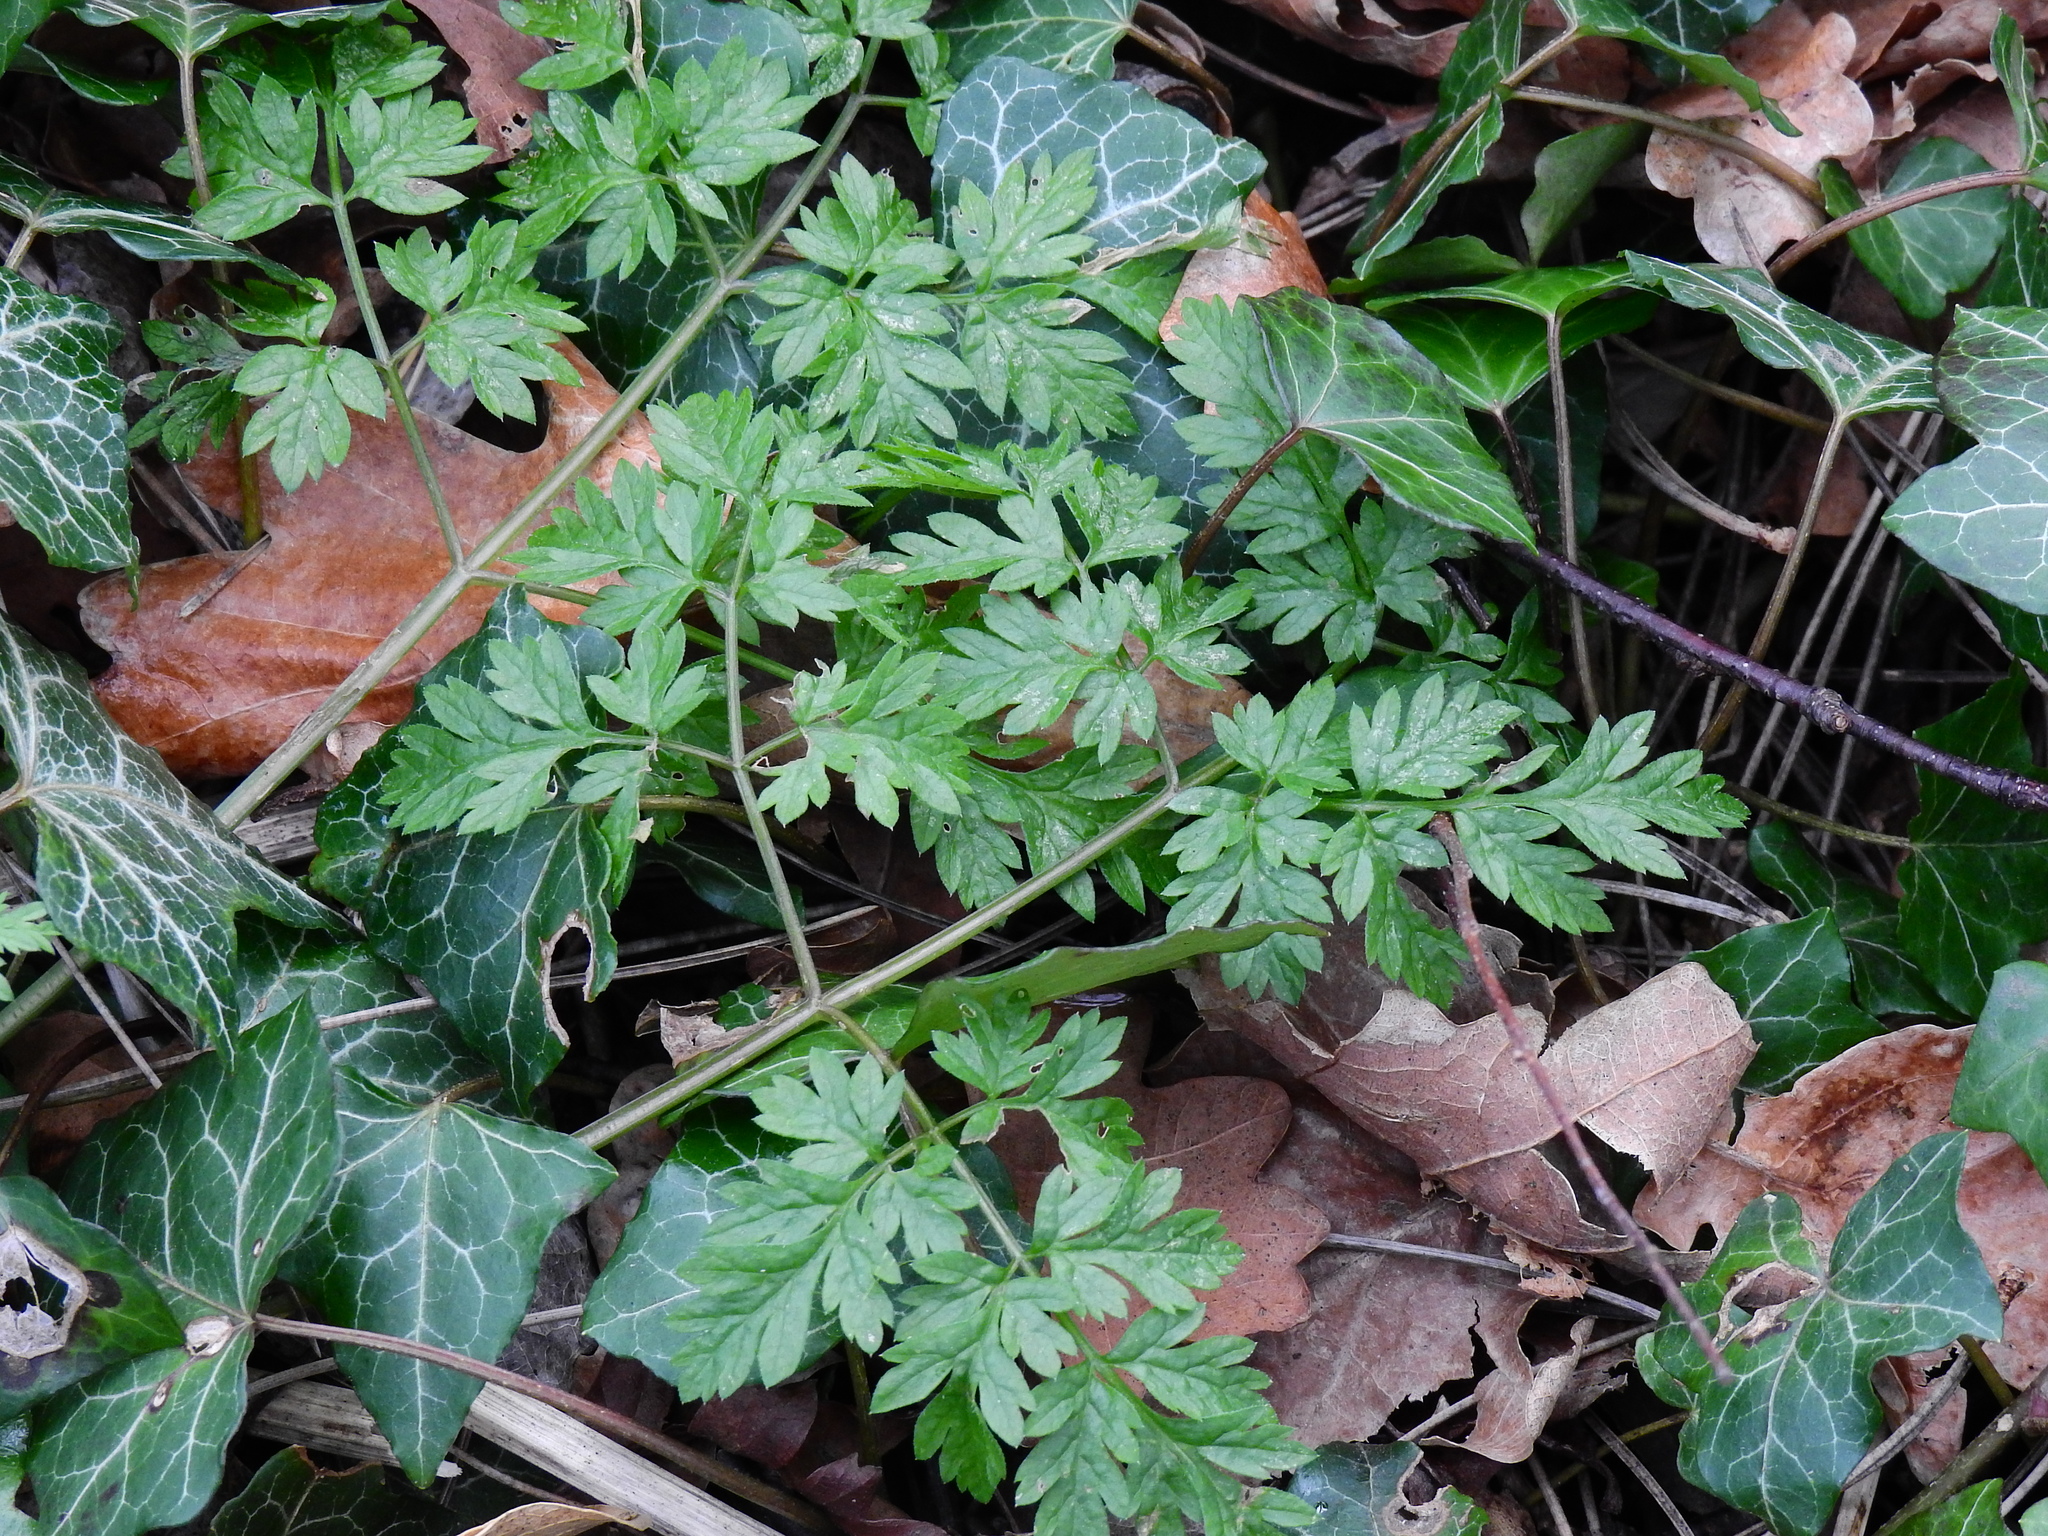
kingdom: Plantae
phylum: Tracheophyta
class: Magnoliopsida
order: Apiales
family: Apiaceae
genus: Anthriscus
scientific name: Anthriscus sylvestris
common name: Cow parsley
